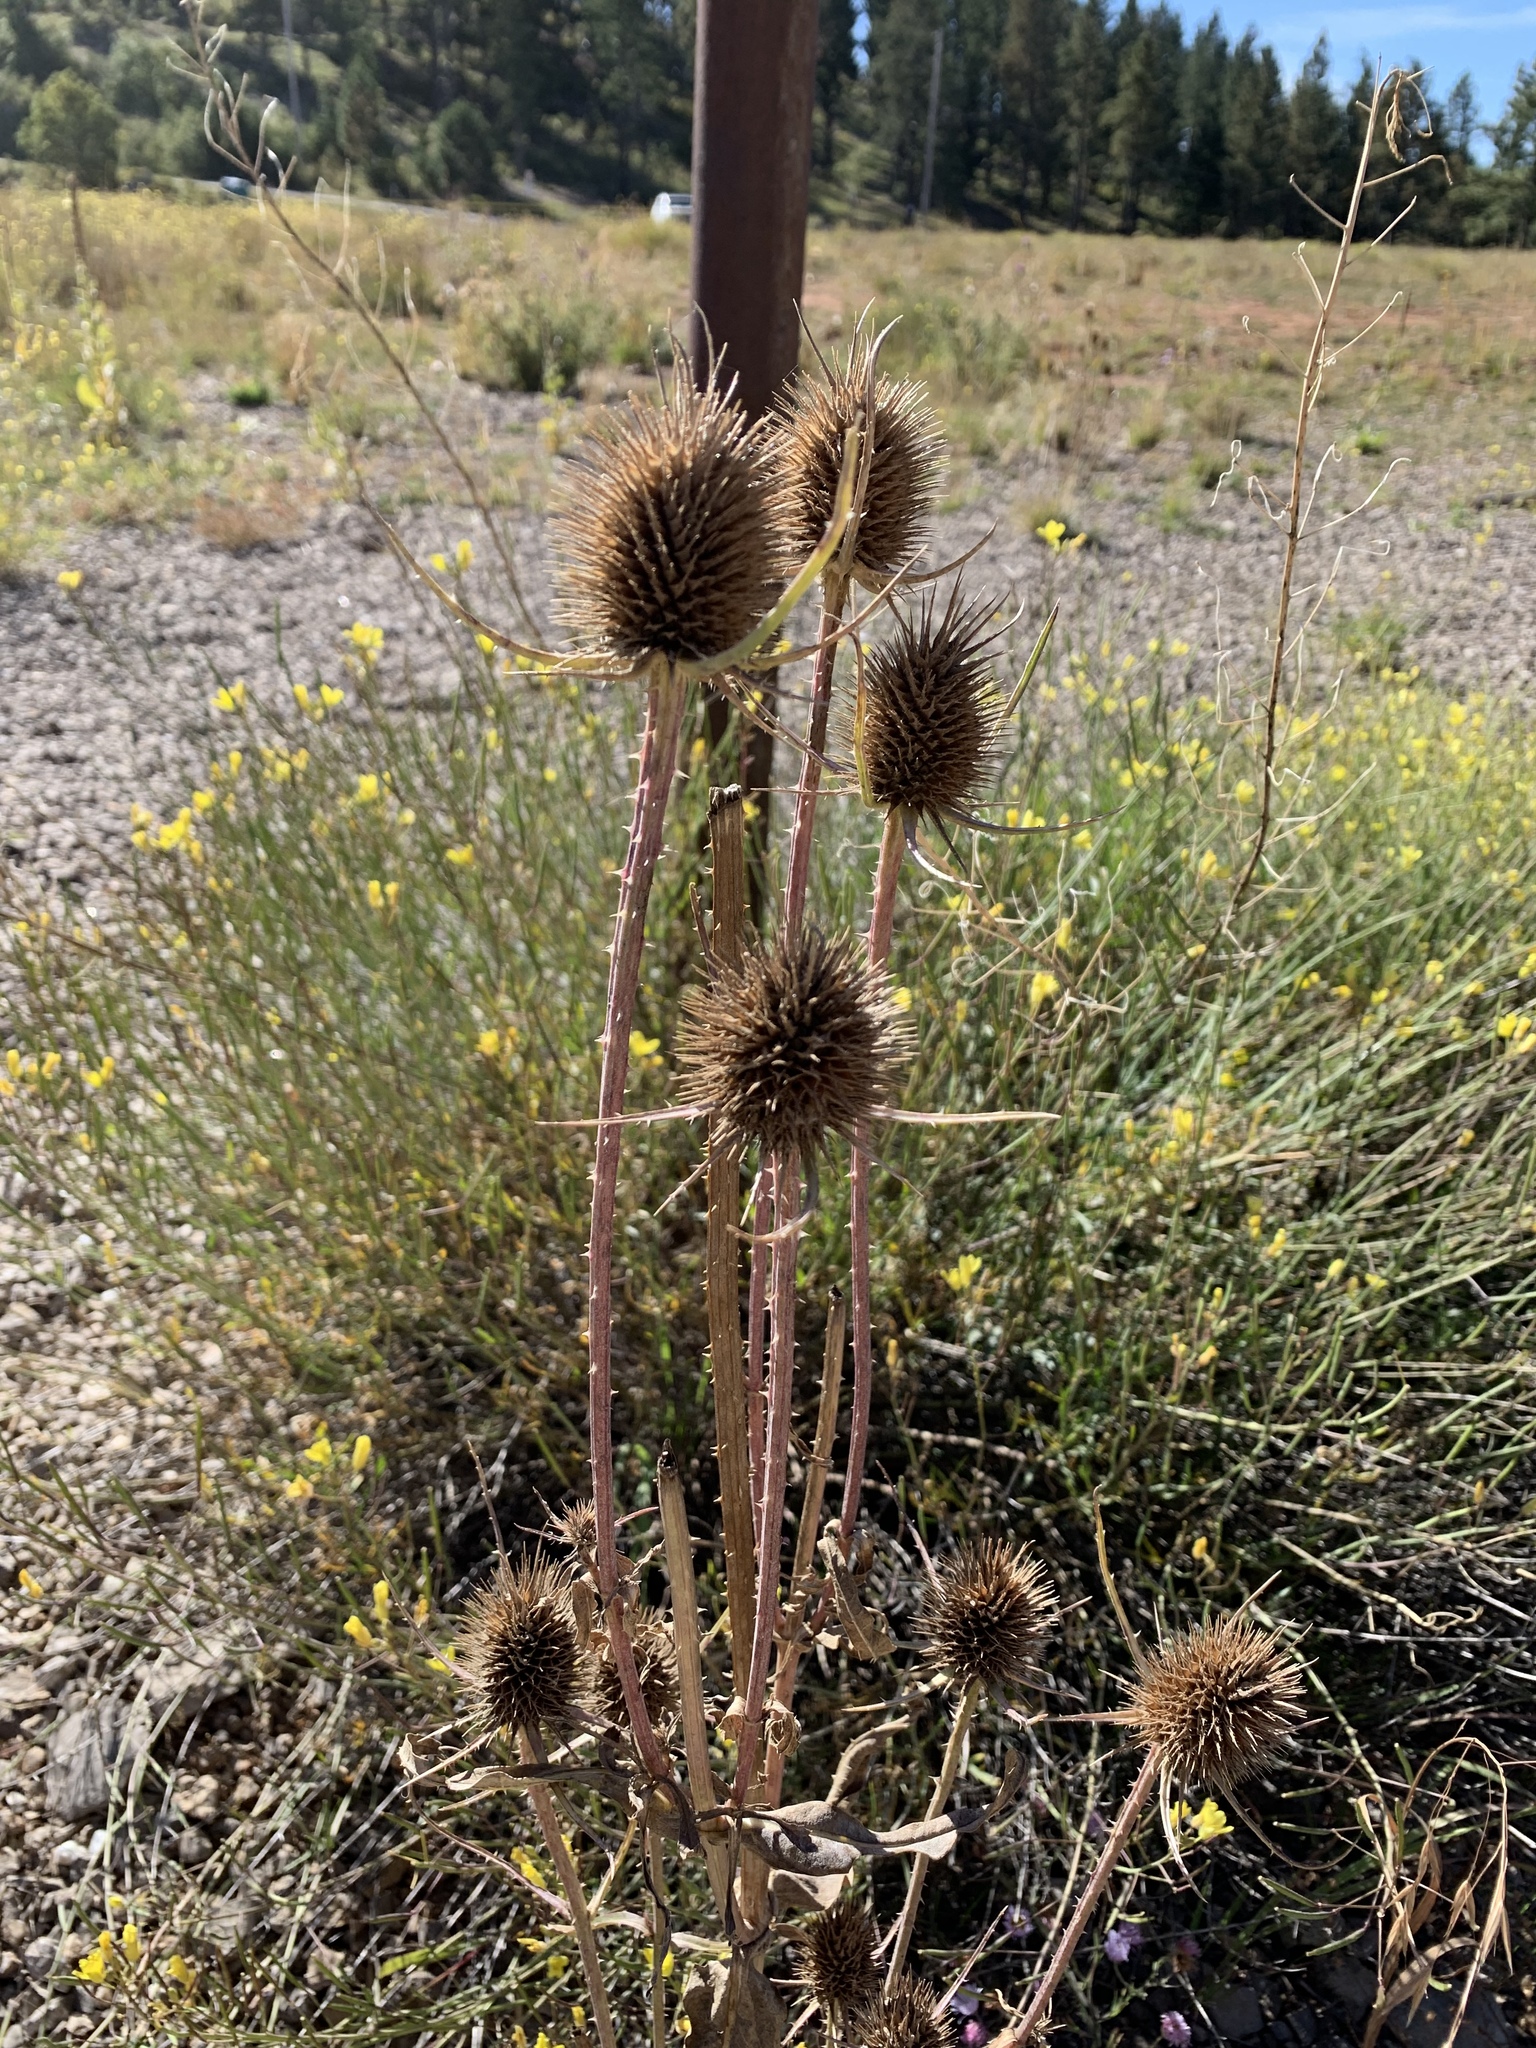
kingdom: Plantae
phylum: Tracheophyta
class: Magnoliopsida
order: Dipsacales
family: Caprifoliaceae
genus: Dipsacus
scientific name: Dipsacus fullonum
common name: Teasel
